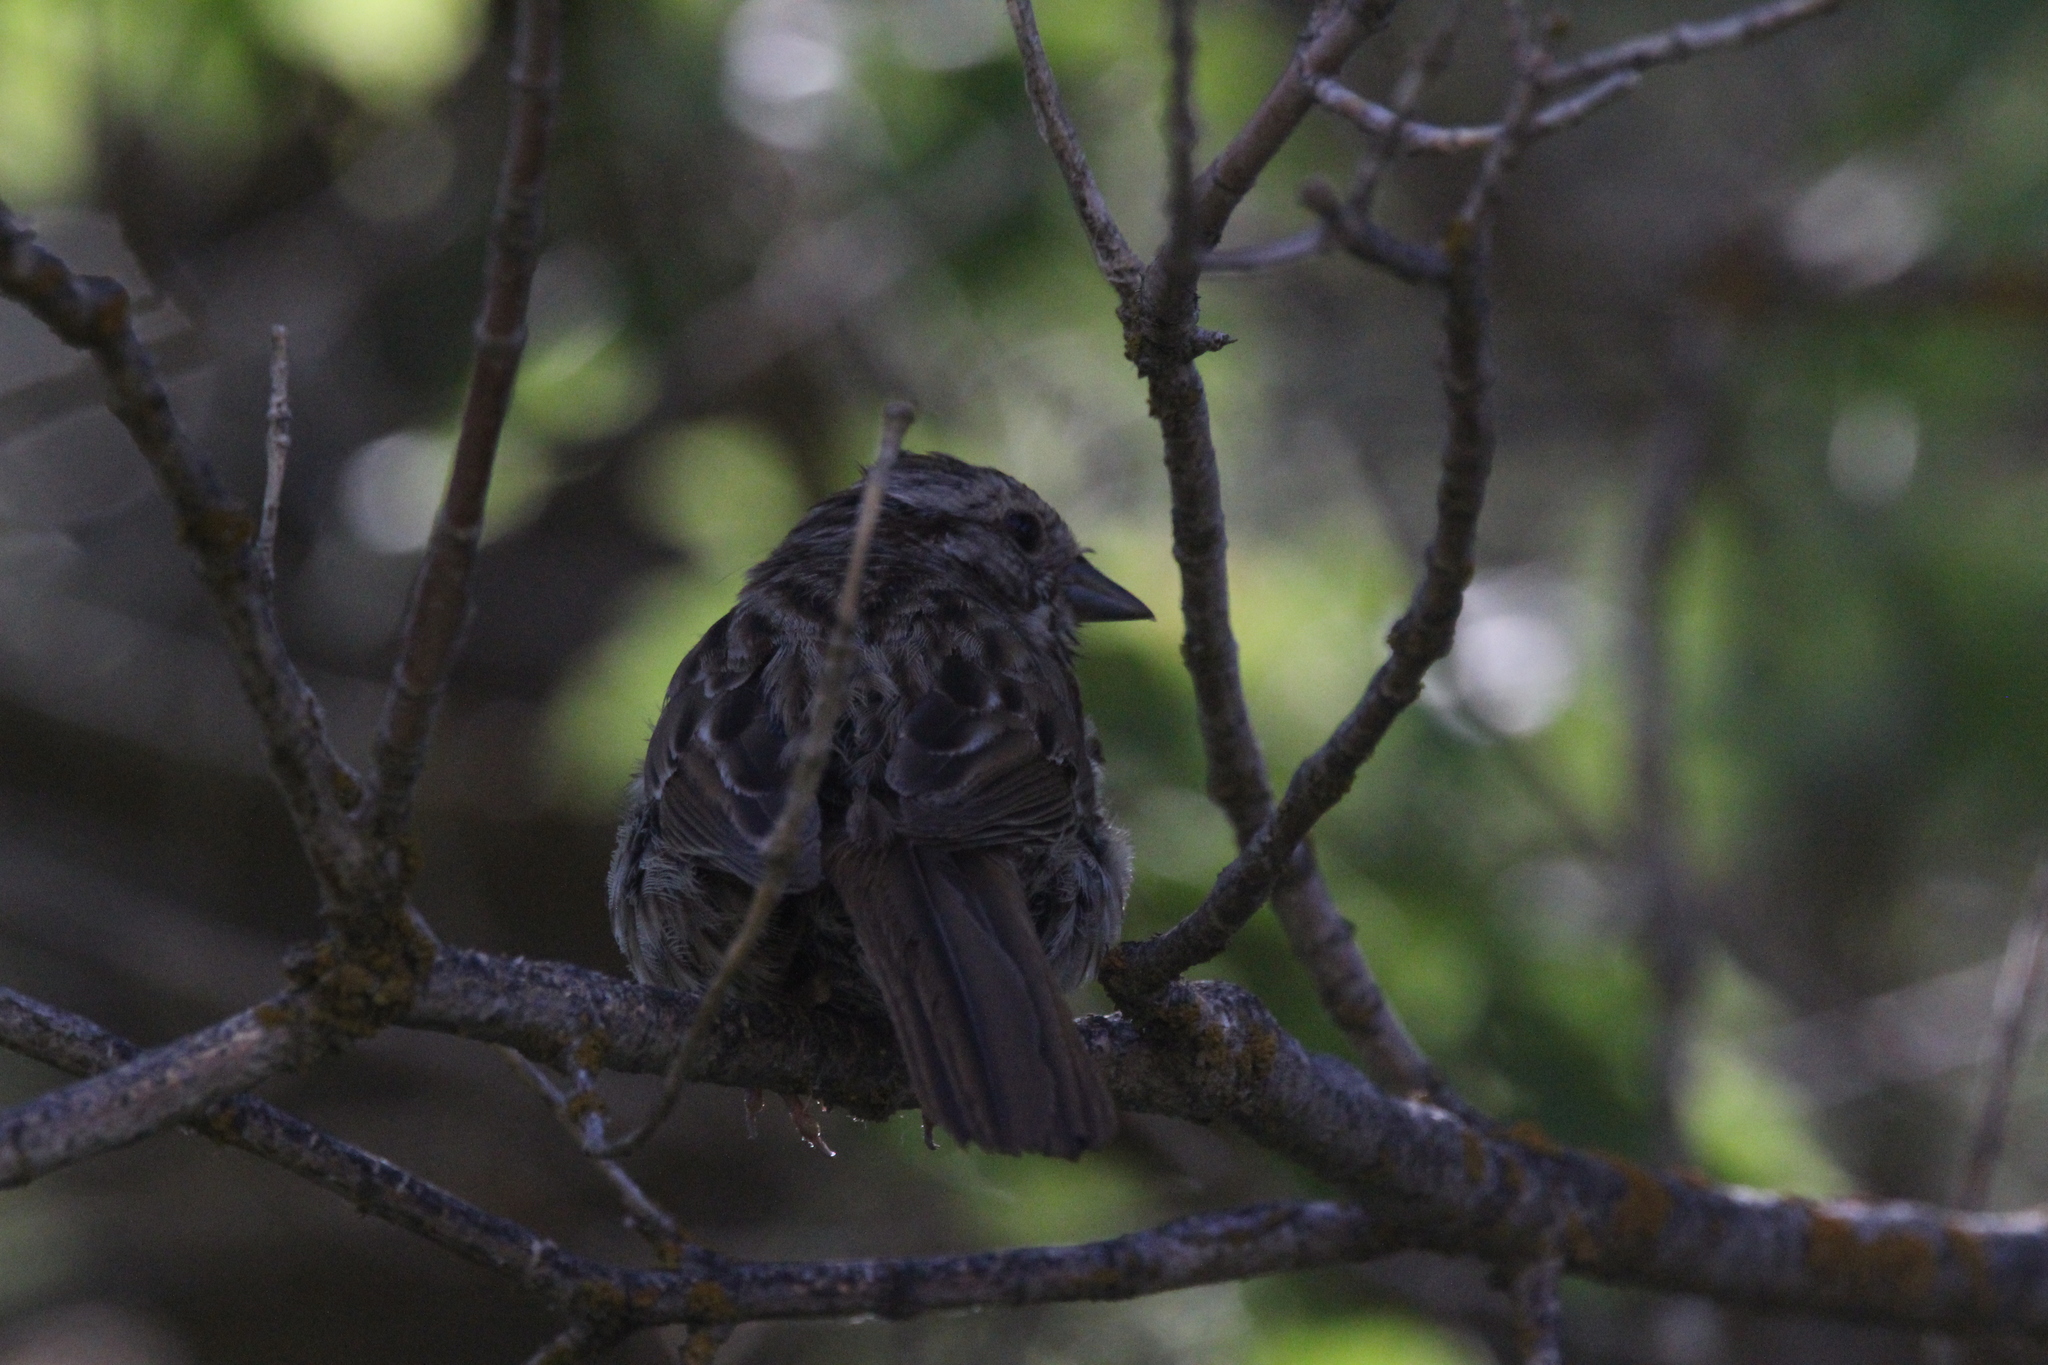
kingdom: Animalia
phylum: Chordata
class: Aves
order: Passeriformes
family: Passerellidae
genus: Melospiza
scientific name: Melospiza melodia
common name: Song sparrow
